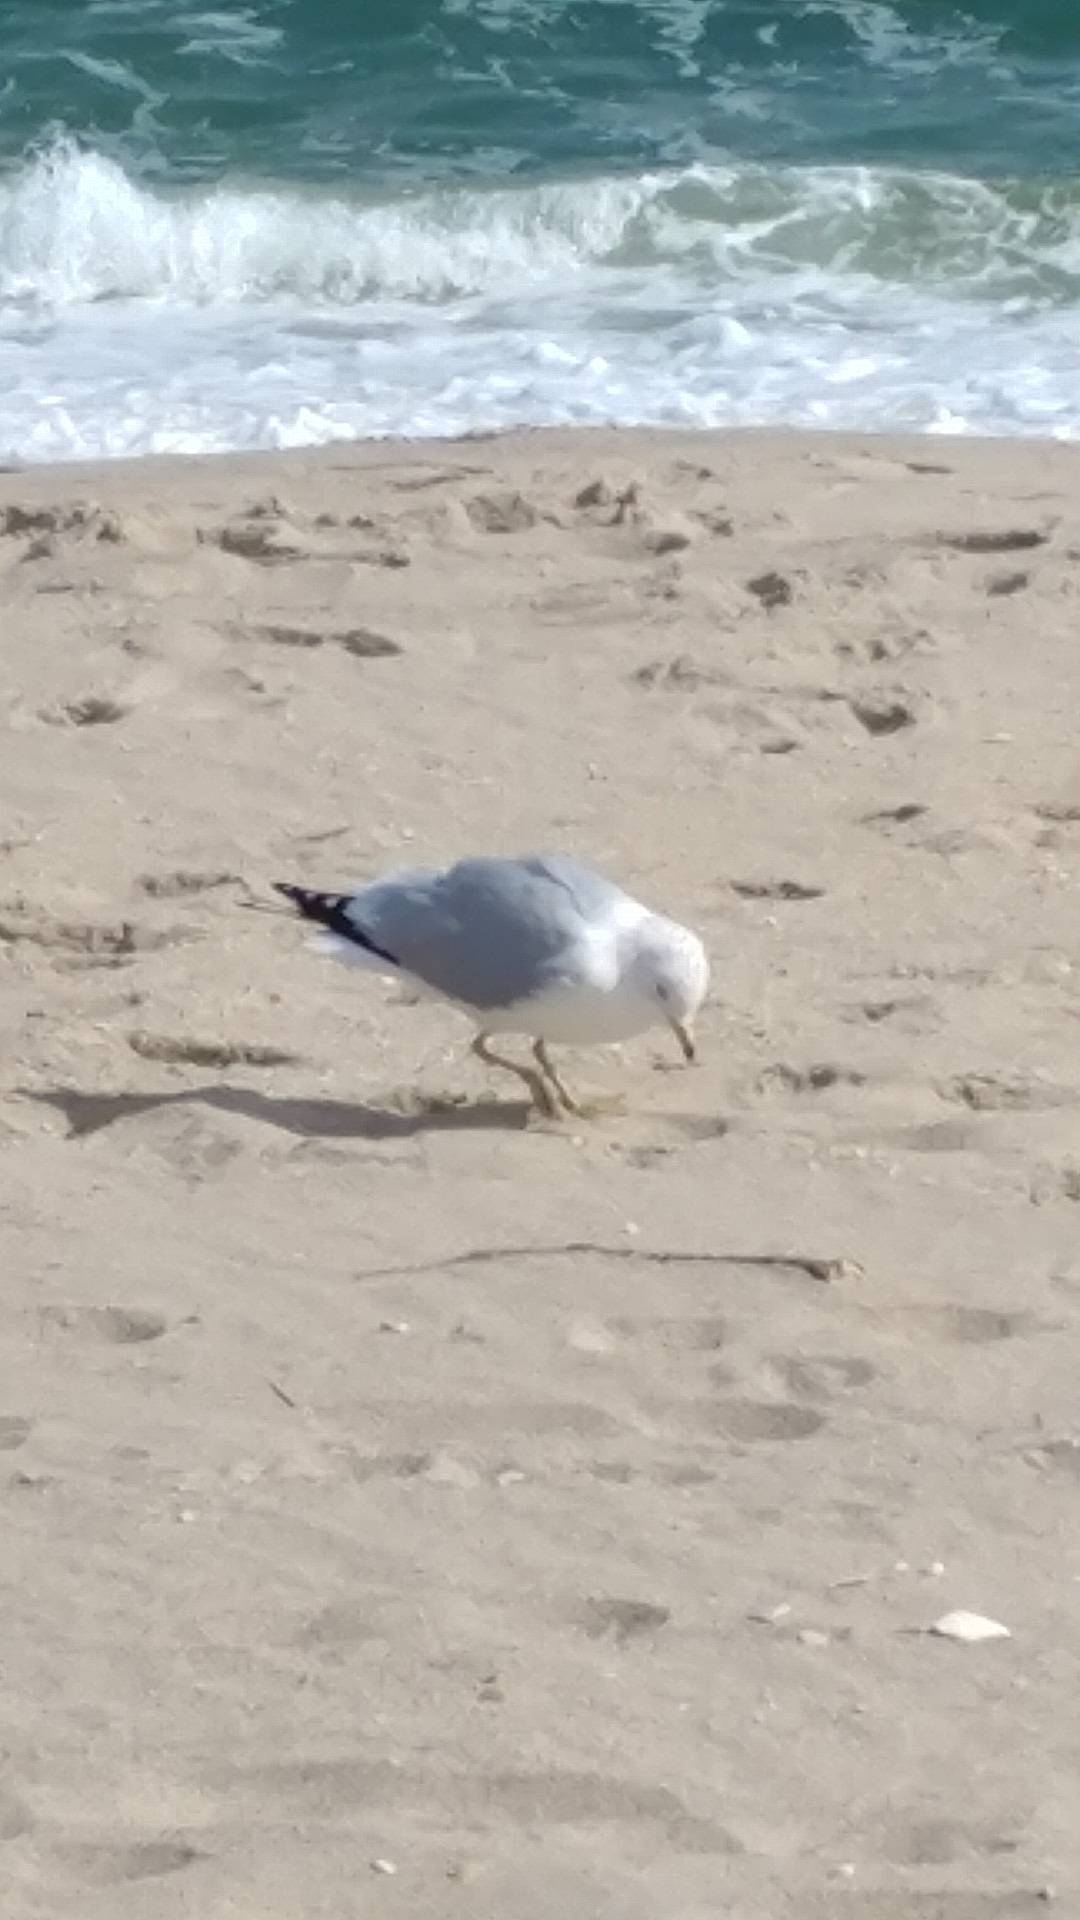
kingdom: Animalia
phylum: Chordata
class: Aves
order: Charadriiformes
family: Laridae
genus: Larus
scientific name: Larus delawarensis
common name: Ring-billed gull
